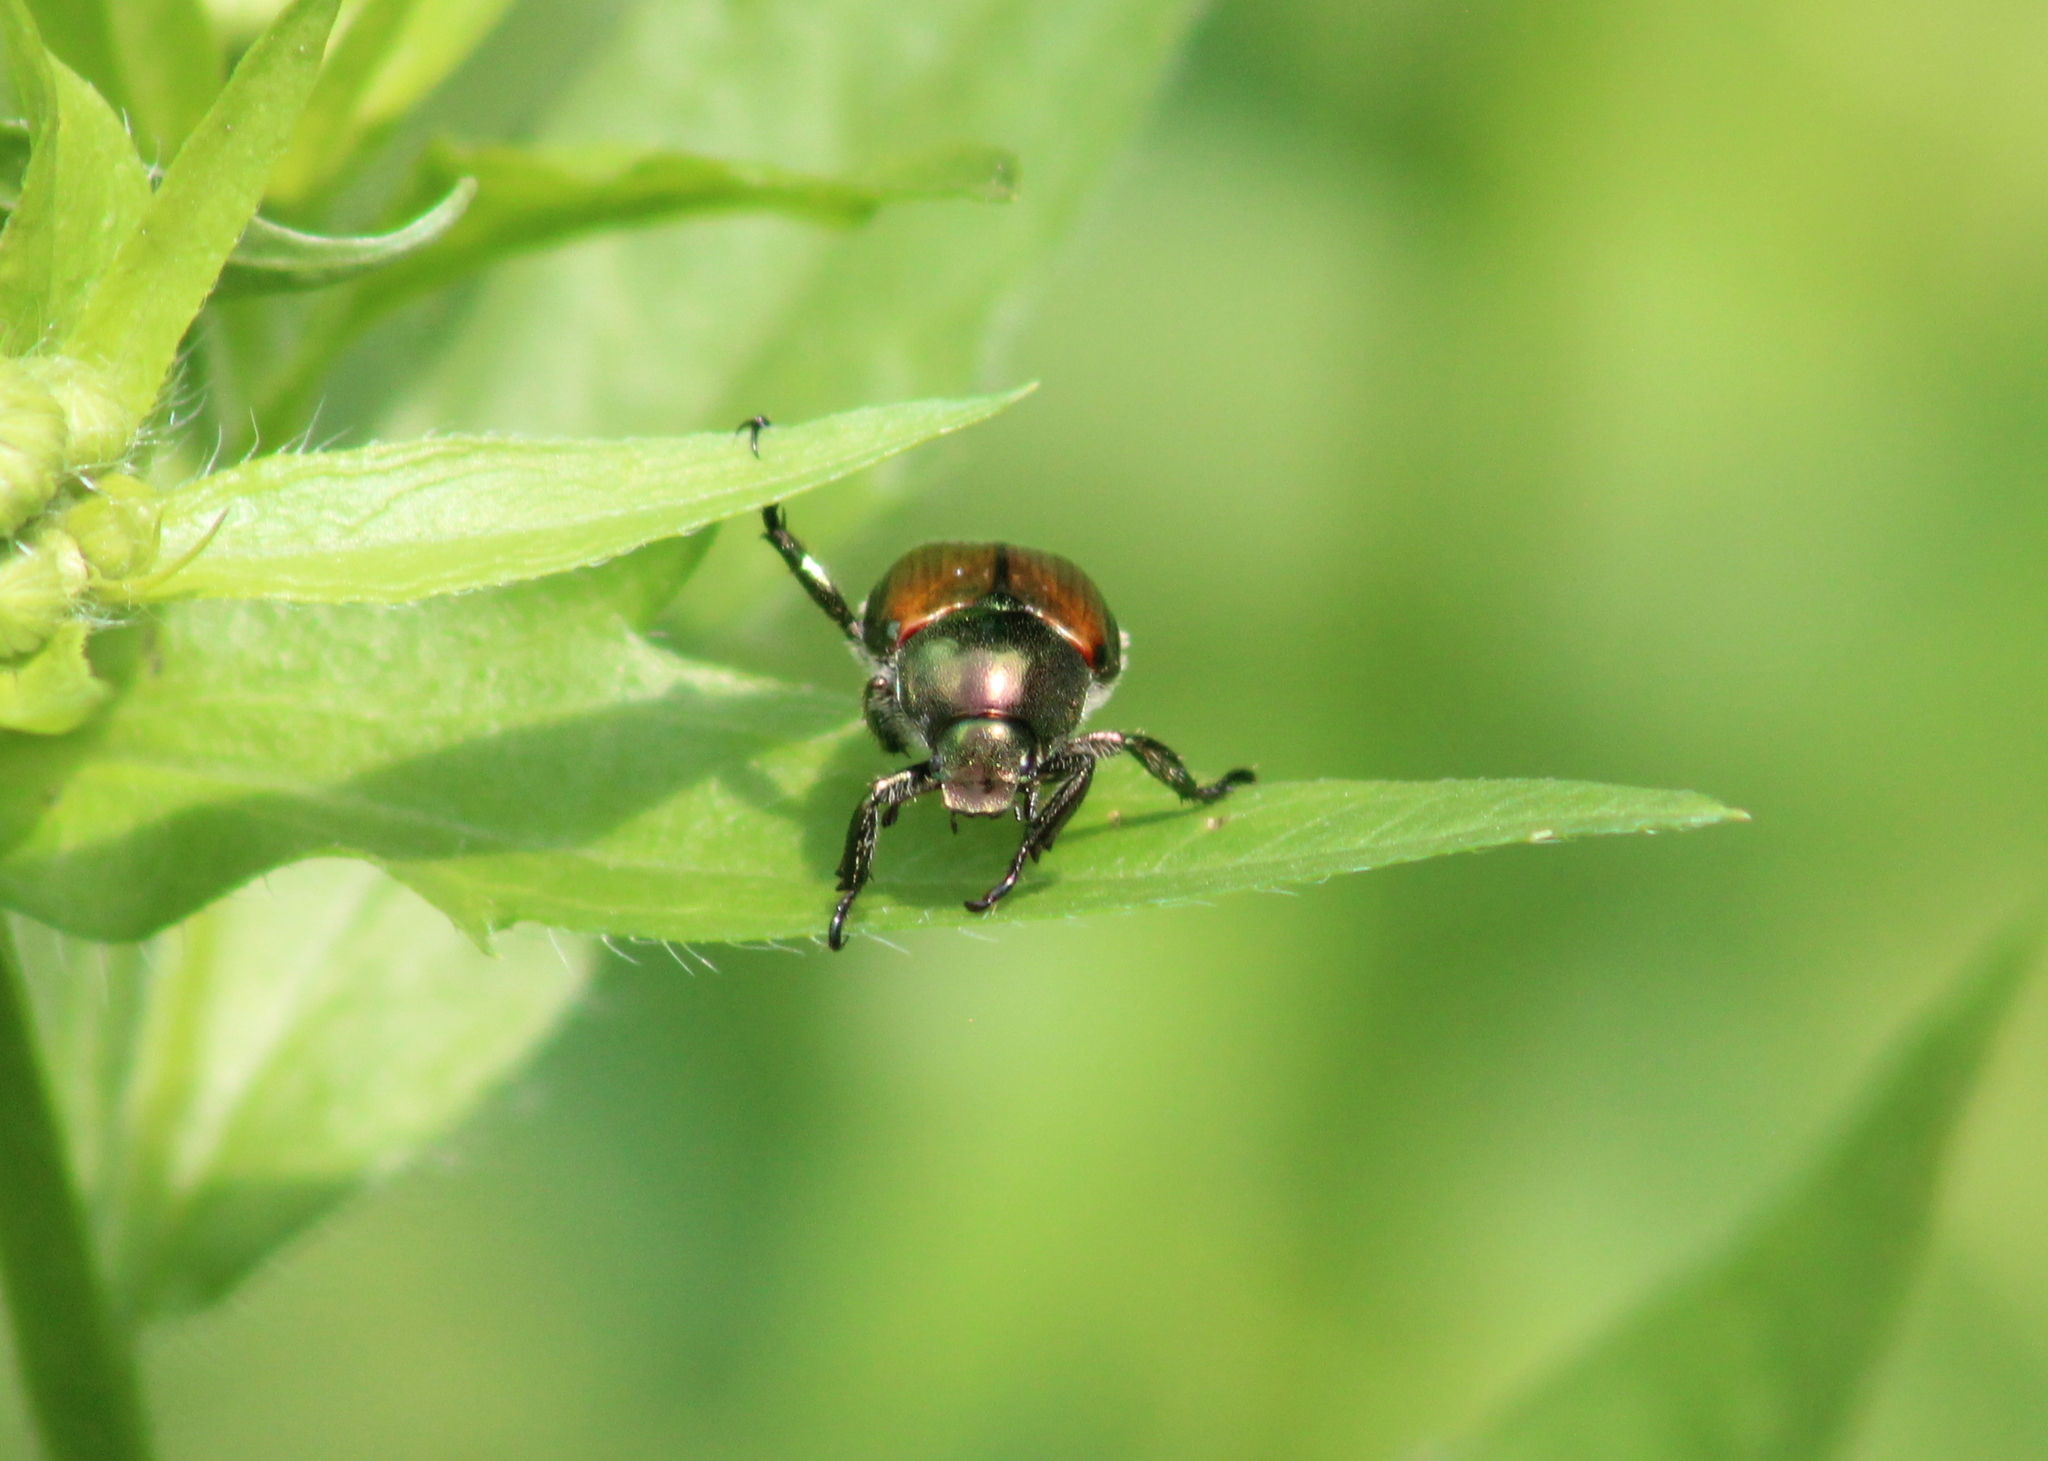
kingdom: Animalia
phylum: Arthropoda
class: Insecta
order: Coleoptera
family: Scarabaeidae
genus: Popillia
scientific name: Popillia japonica
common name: Japanese beetle
